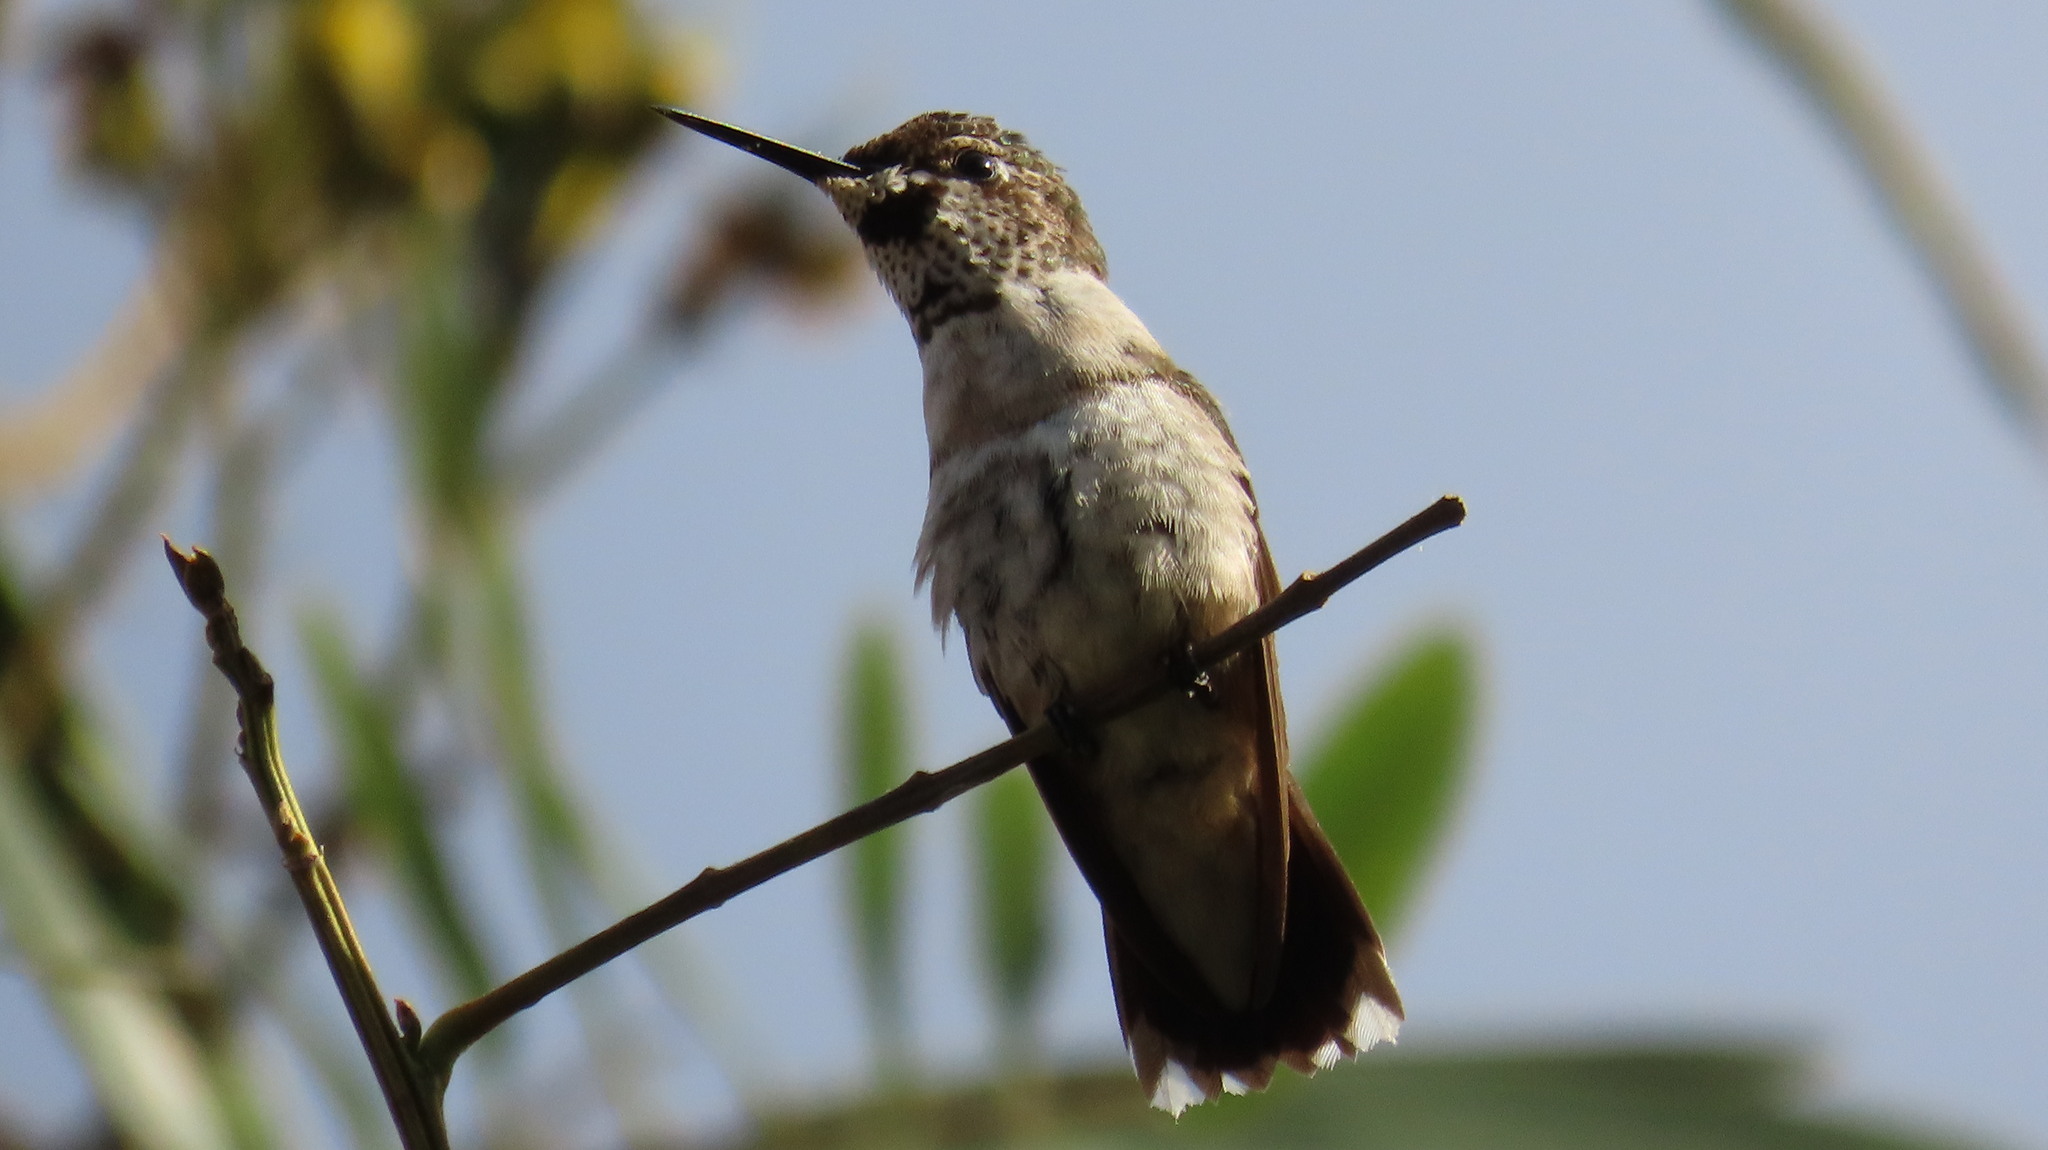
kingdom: Animalia
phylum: Chordata
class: Aves
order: Apodiformes
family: Trochilidae
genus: Archilochus
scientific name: Archilochus colubris
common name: Ruby-throated hummingbird
